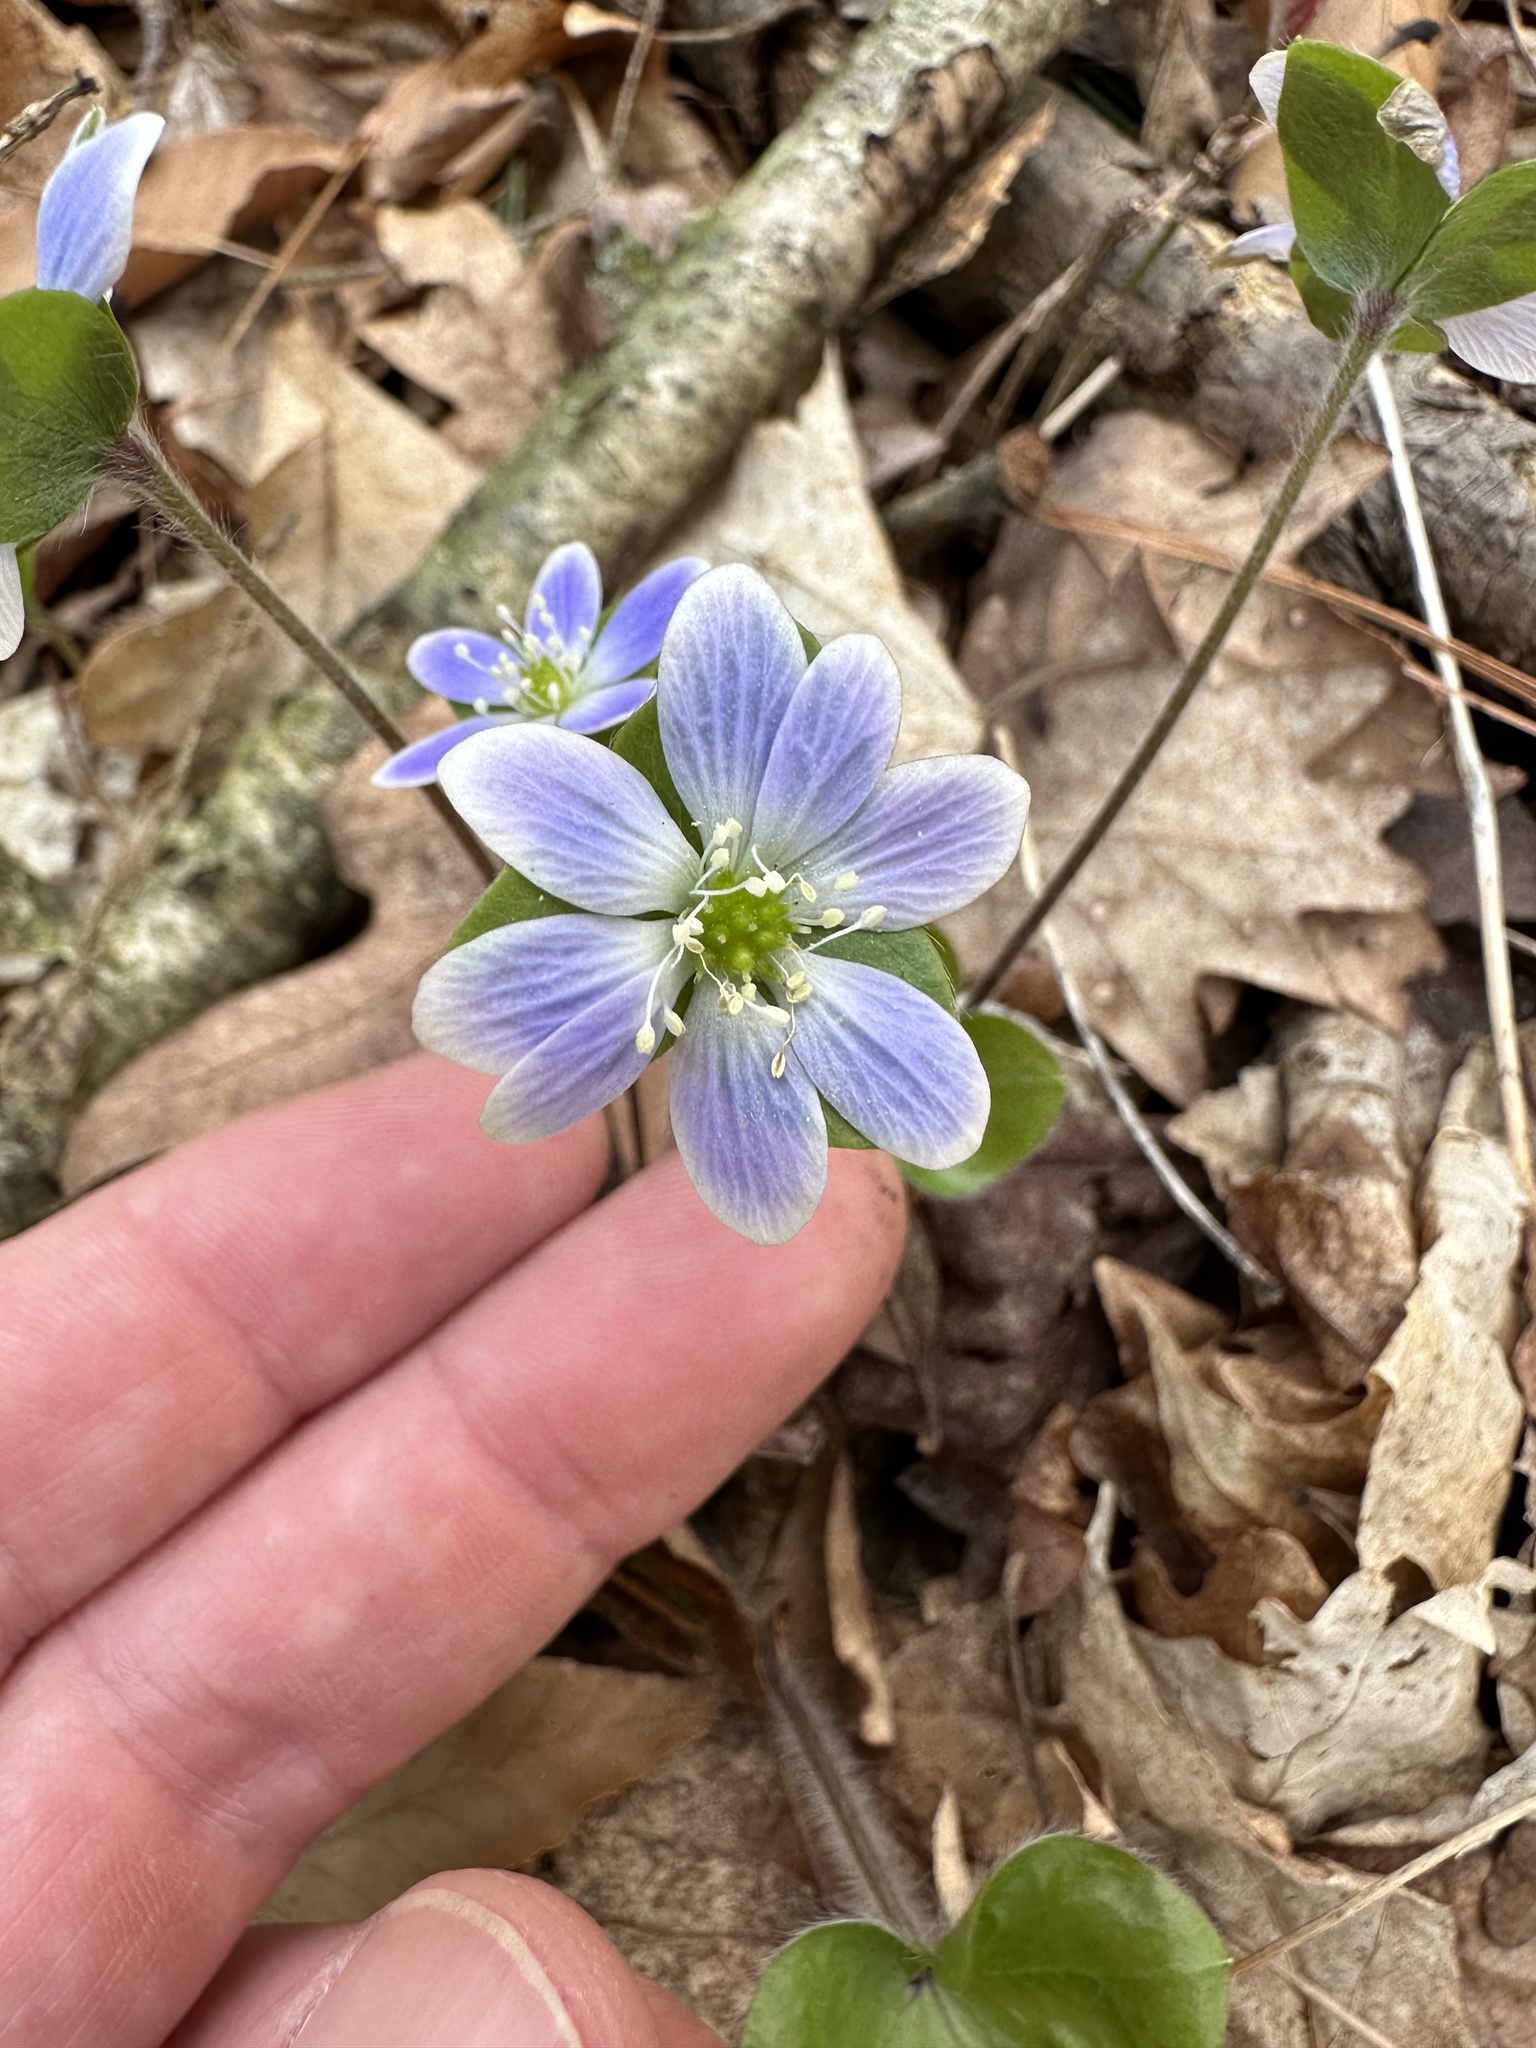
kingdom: Plantae
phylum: Tracheophyta
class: Magnoliopsida
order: Ranunculales
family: Ranunculaceae
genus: Hepatica
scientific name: Hepatica americana
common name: American hepatica
